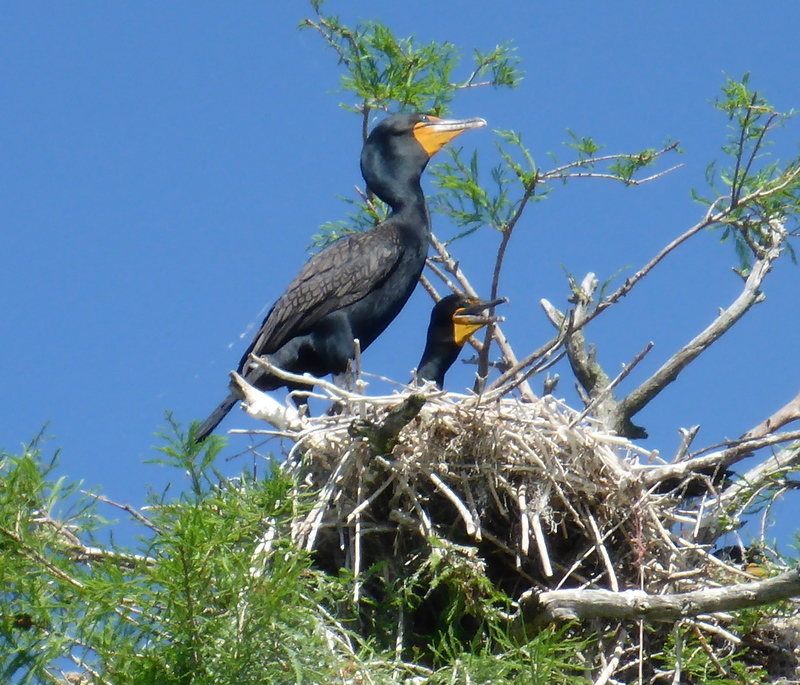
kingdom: Animalia
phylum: Chordata
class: Aves
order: Suliformes
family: Phalacrocoracidae
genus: Phalacrocorax
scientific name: Phalacrocorax auritus
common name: Double-crested cormorant
